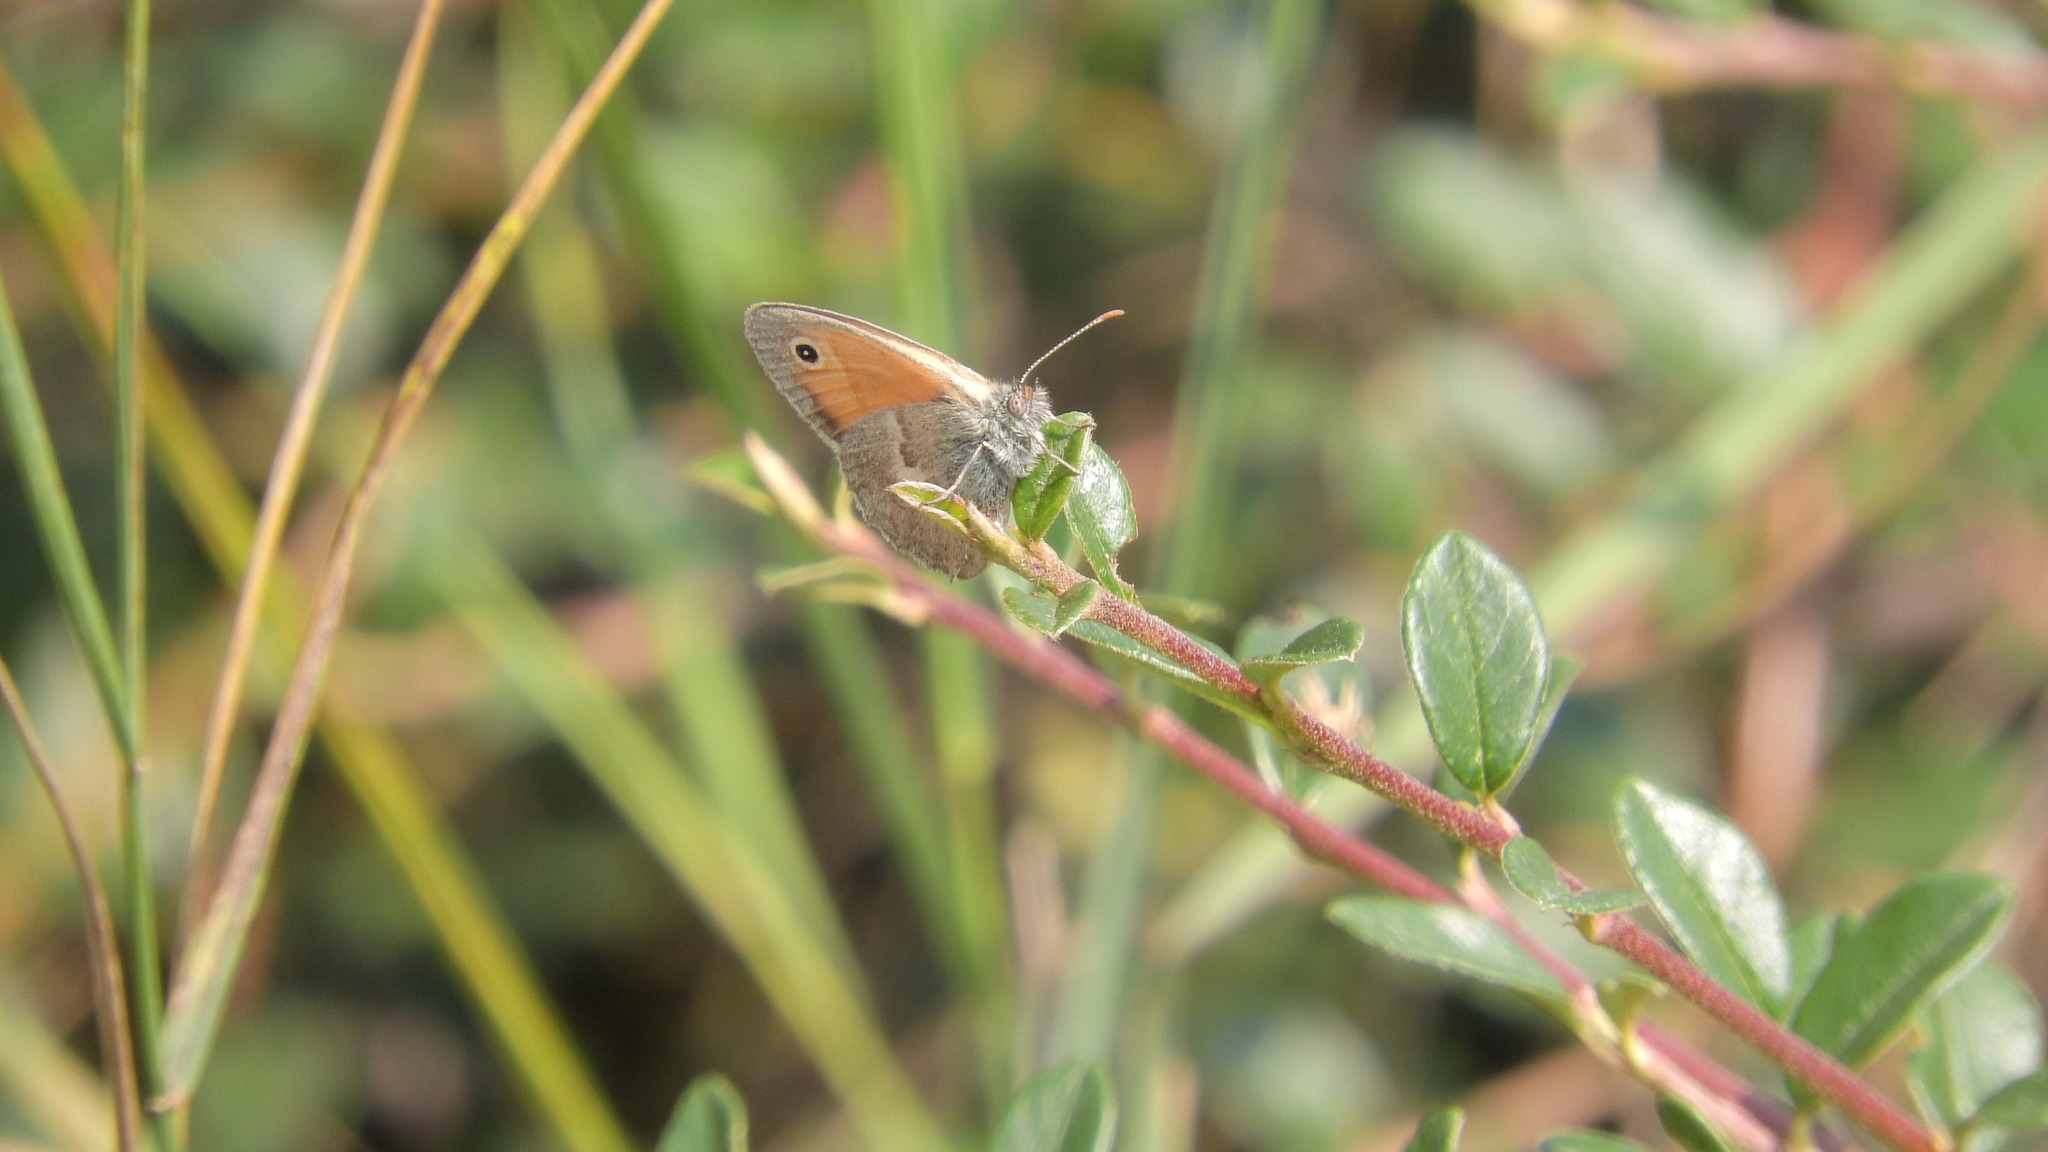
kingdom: Animalia
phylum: Arthropoda
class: Insecta
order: Lepidoptera
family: Nymphalidae
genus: Coenonympha
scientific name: Coenonympha pamphilus
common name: Small heath
